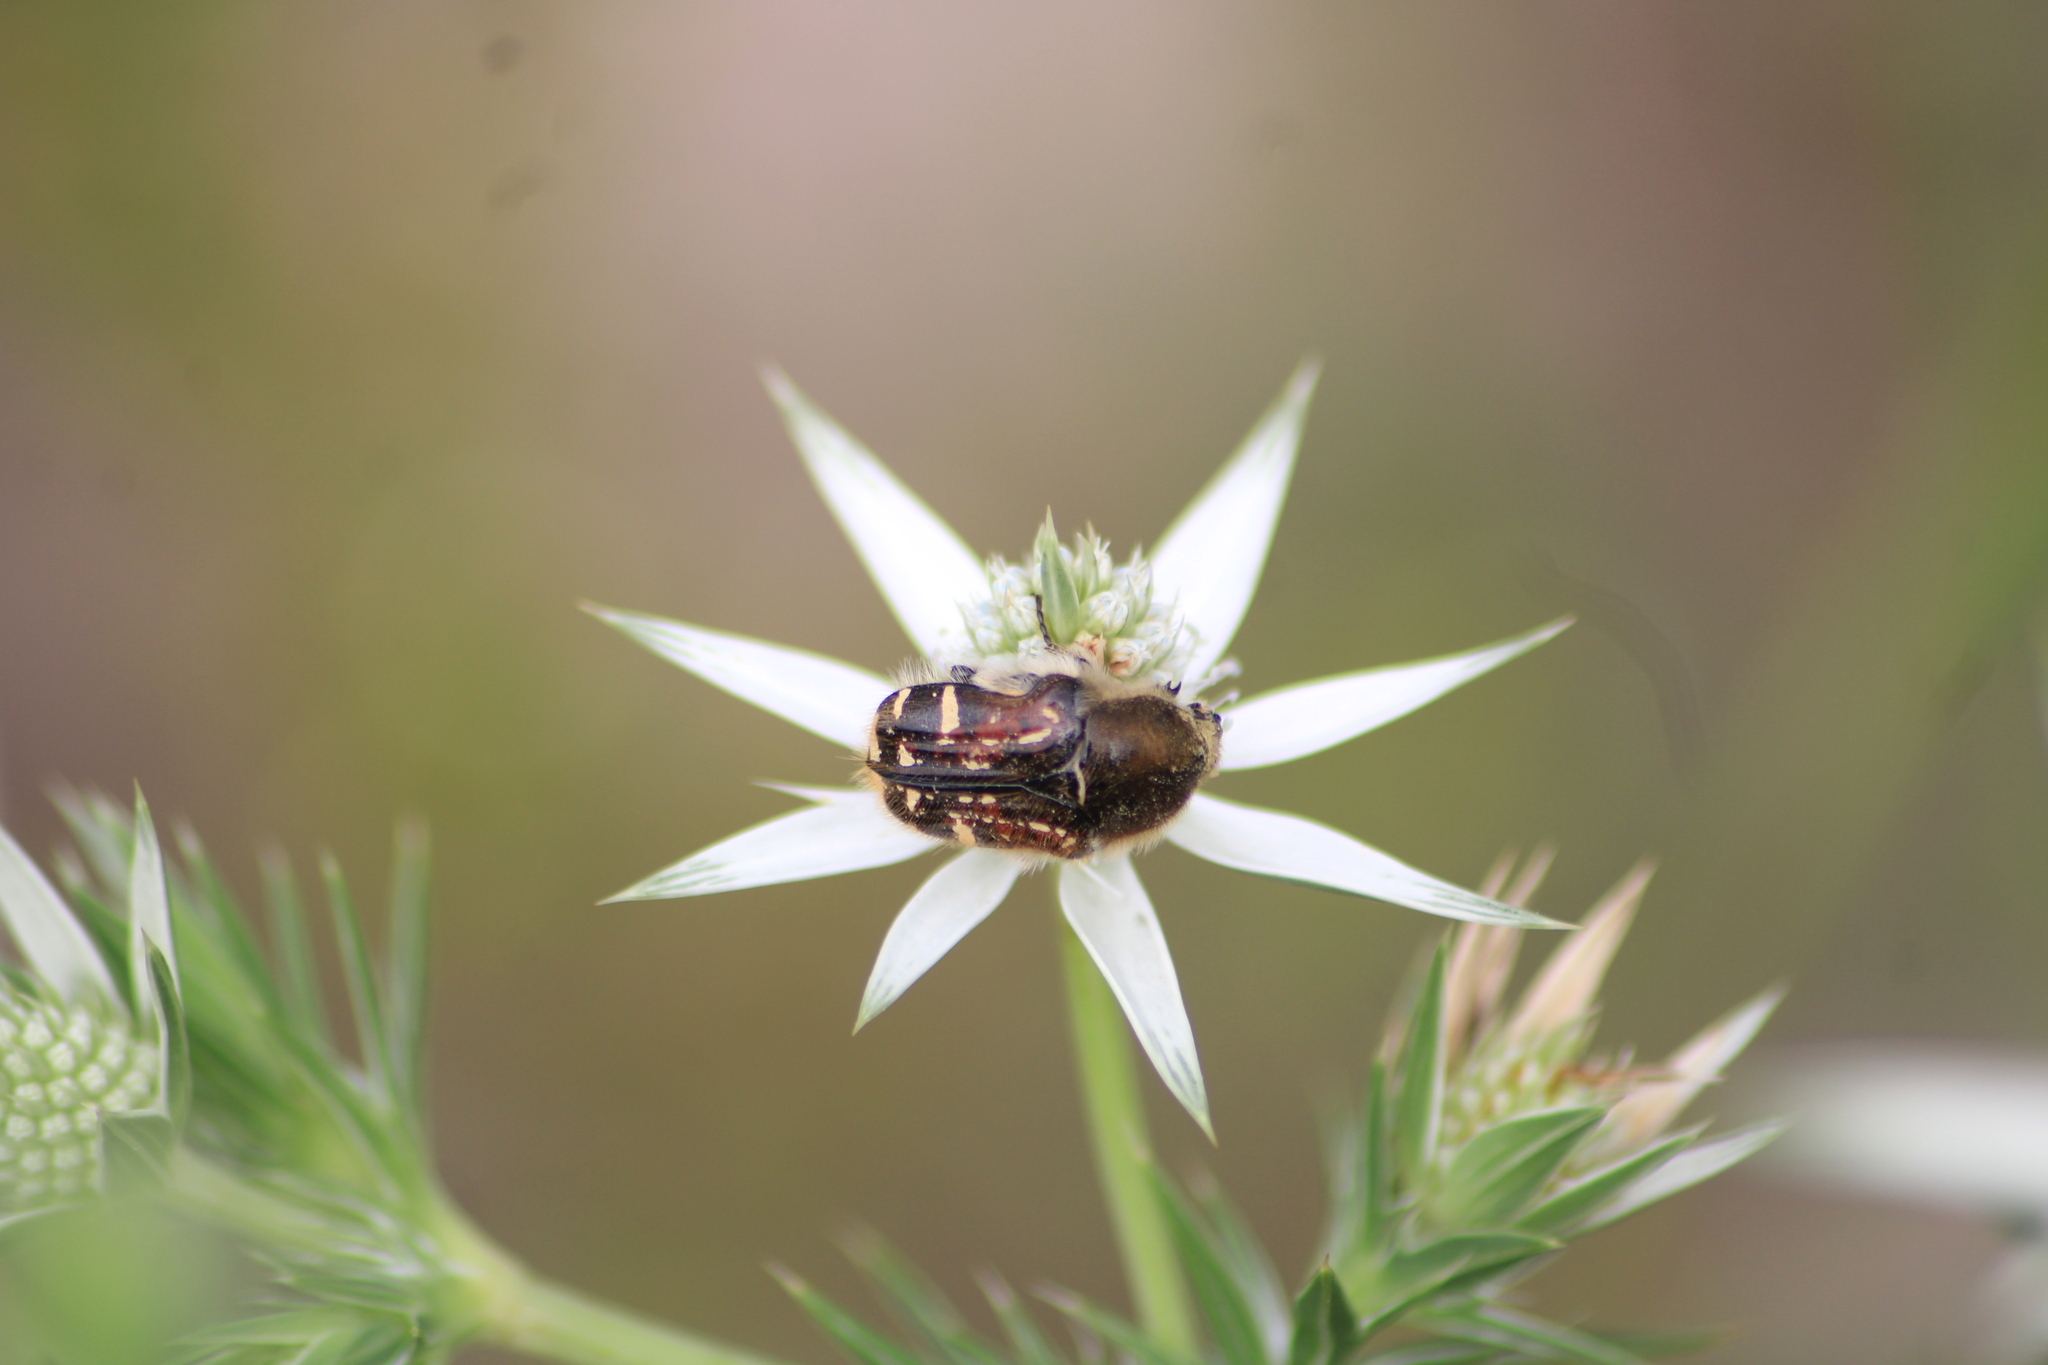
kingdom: Animalia
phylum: Arthropoda
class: Insecta
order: Coleoptera
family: Scarabaeidae
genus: Euphoria
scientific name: Euphoria pulchella
